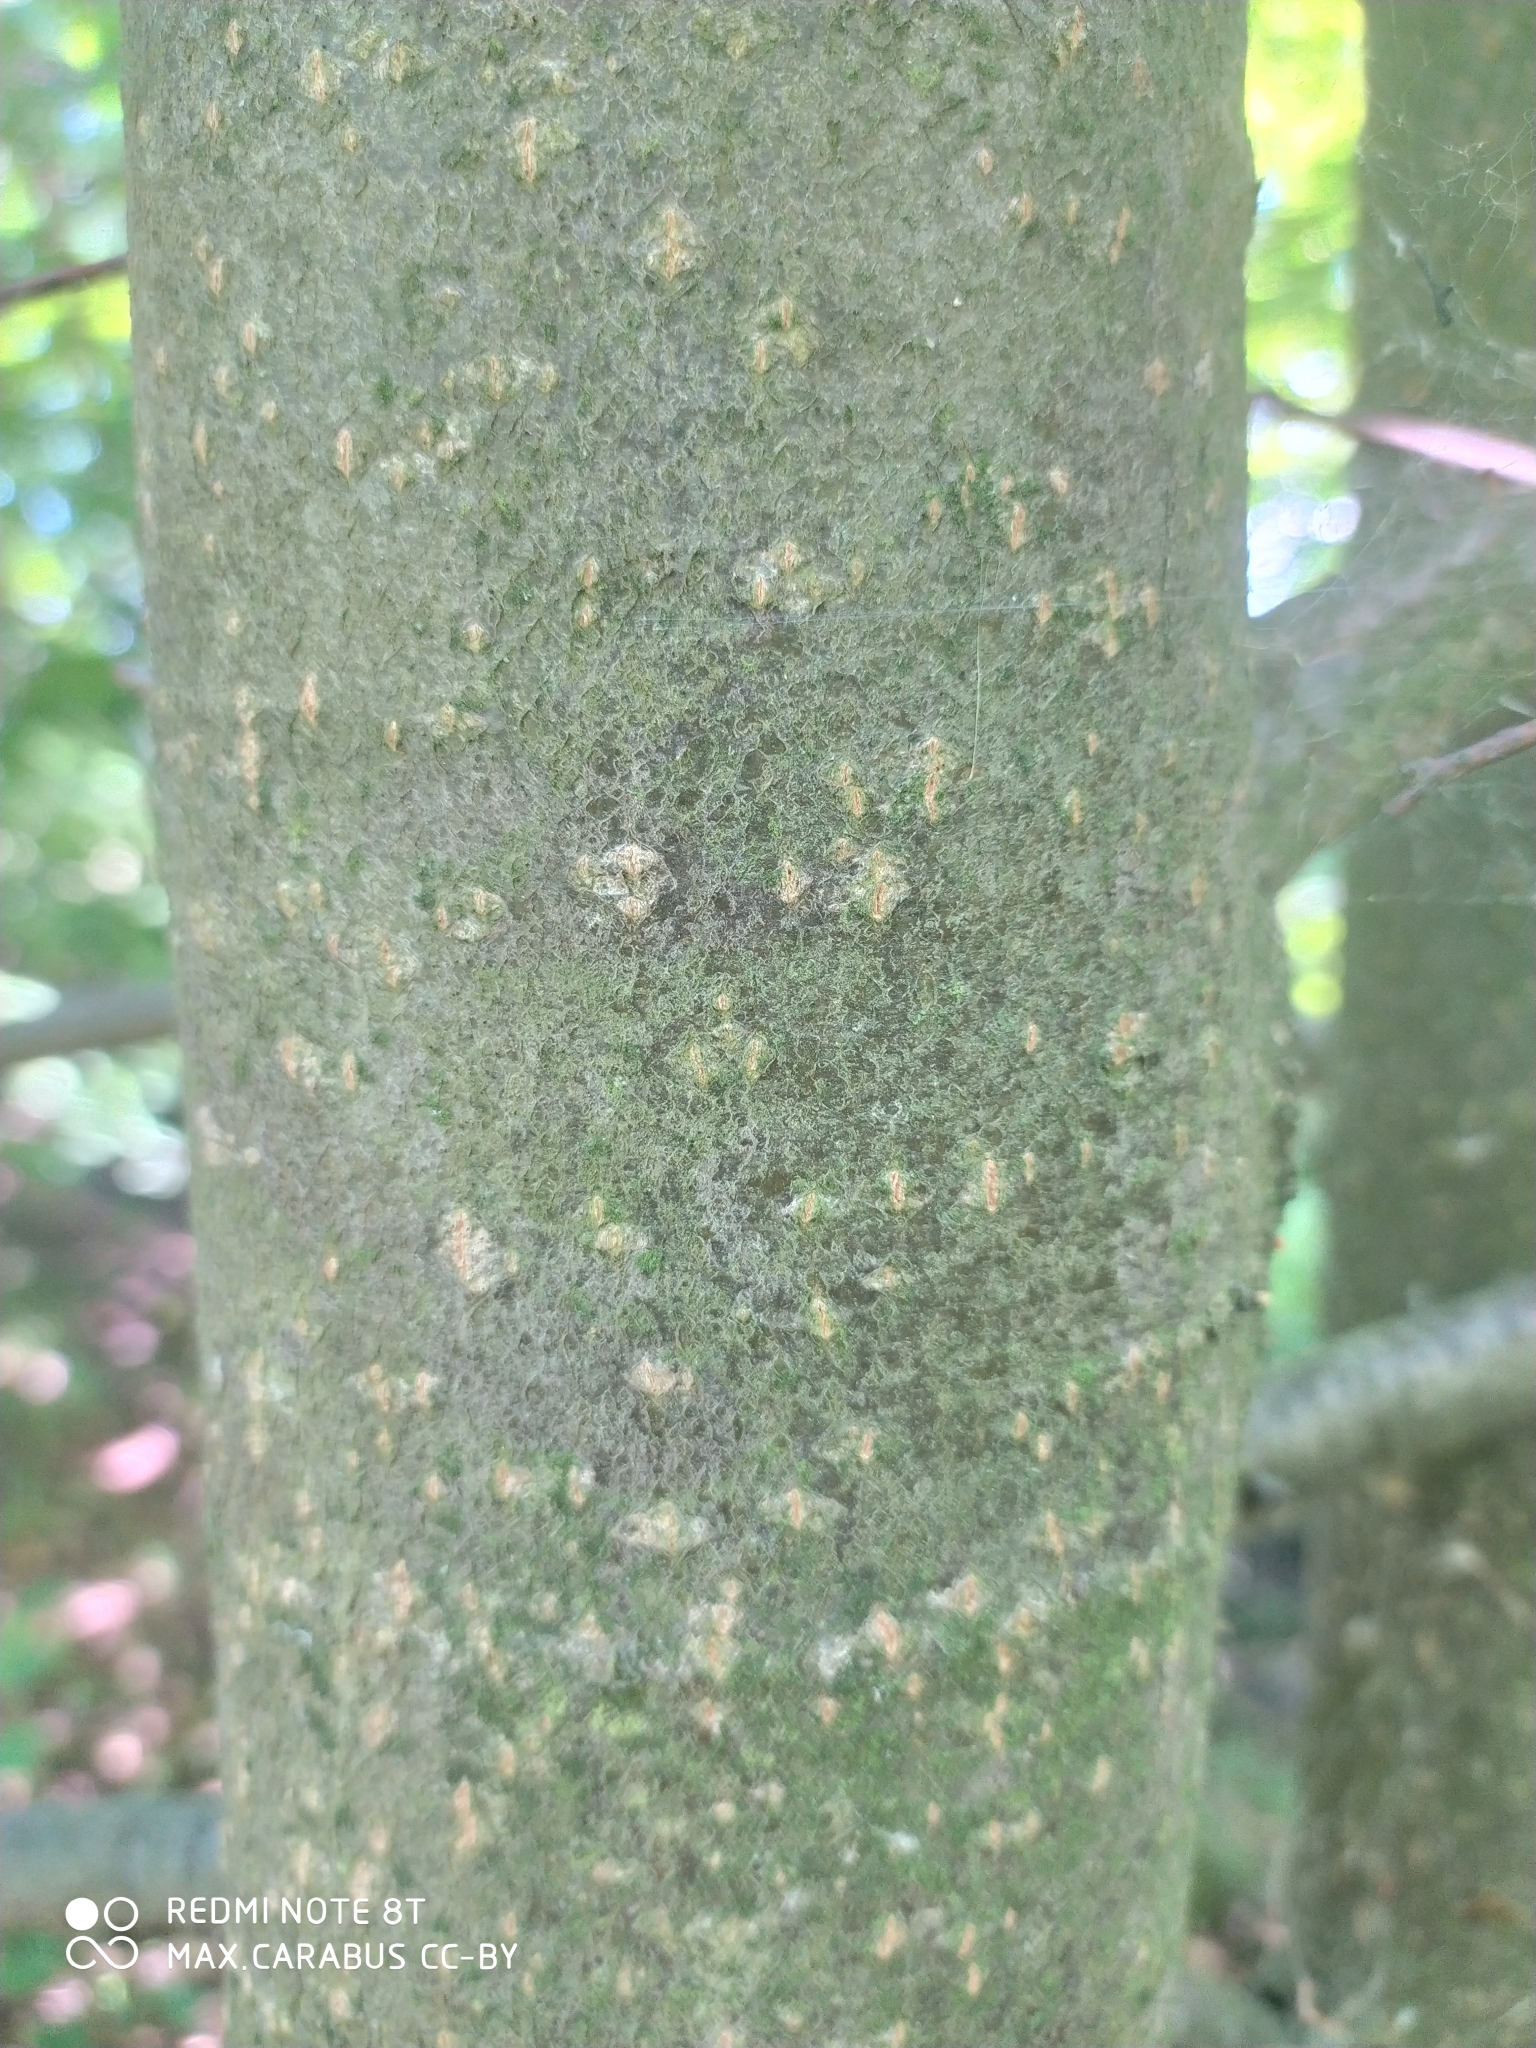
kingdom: Plantae
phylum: Tracheophyta
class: Magnoliopsida
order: Malvales
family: Malvaceae
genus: Tilia
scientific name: Tilia cordata
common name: Small-leaved lime
